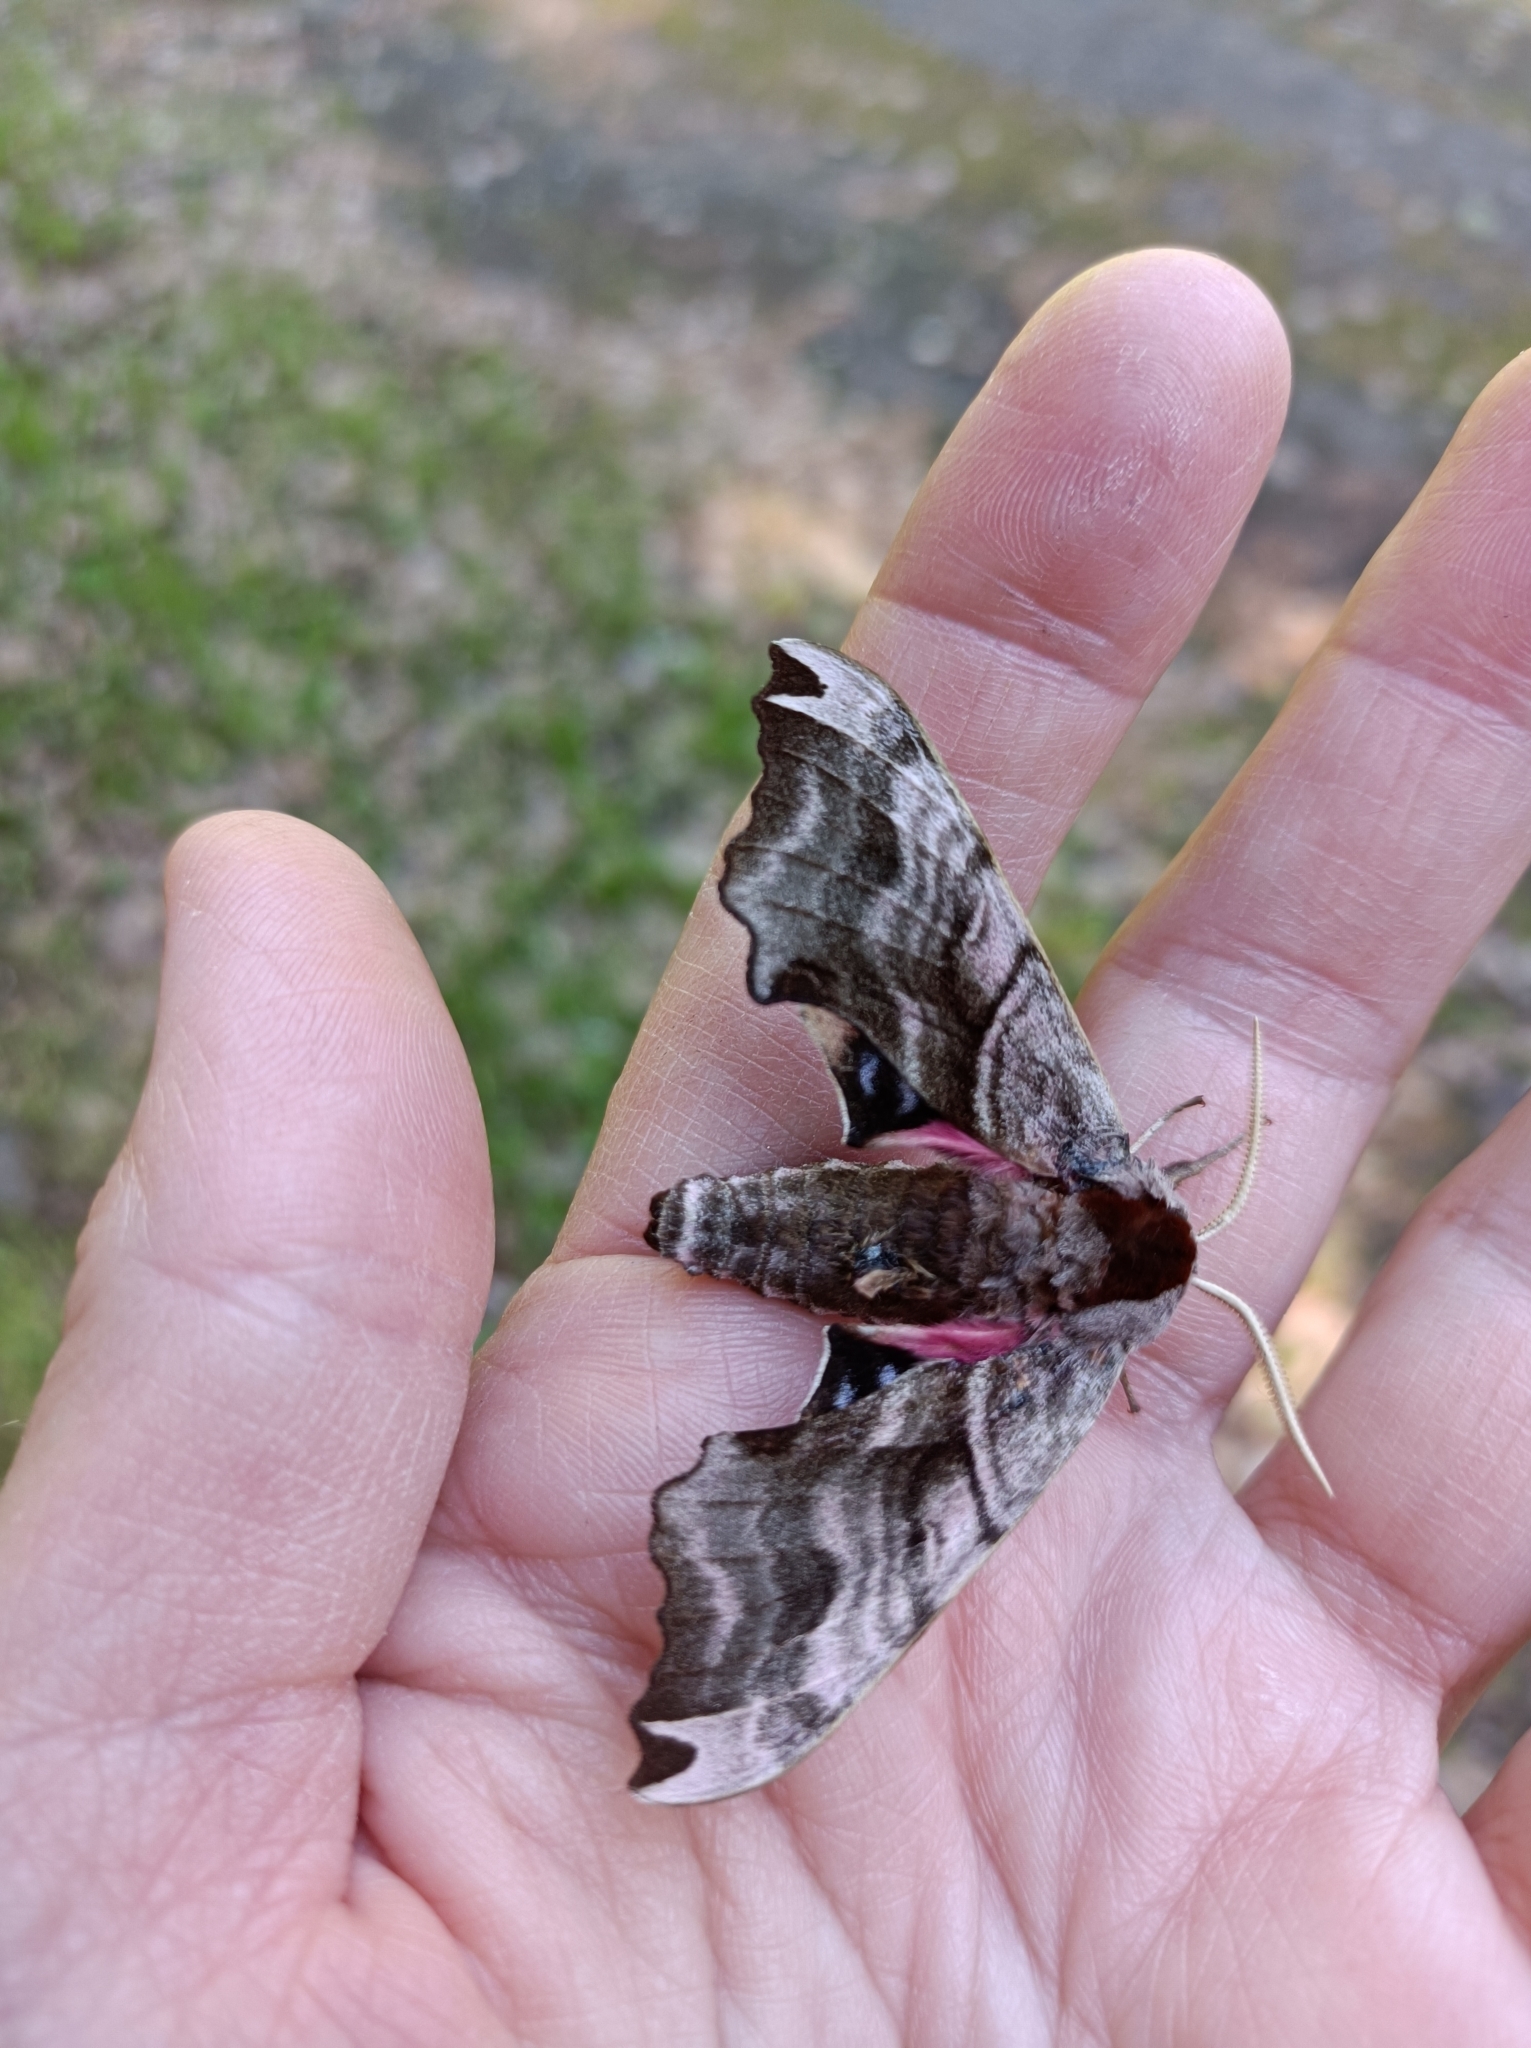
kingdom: Animalia
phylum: Arthropoda
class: Insecta
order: Lepidoptera
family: Sphingidae
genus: Smerinthus
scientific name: Smerinthus caecus
